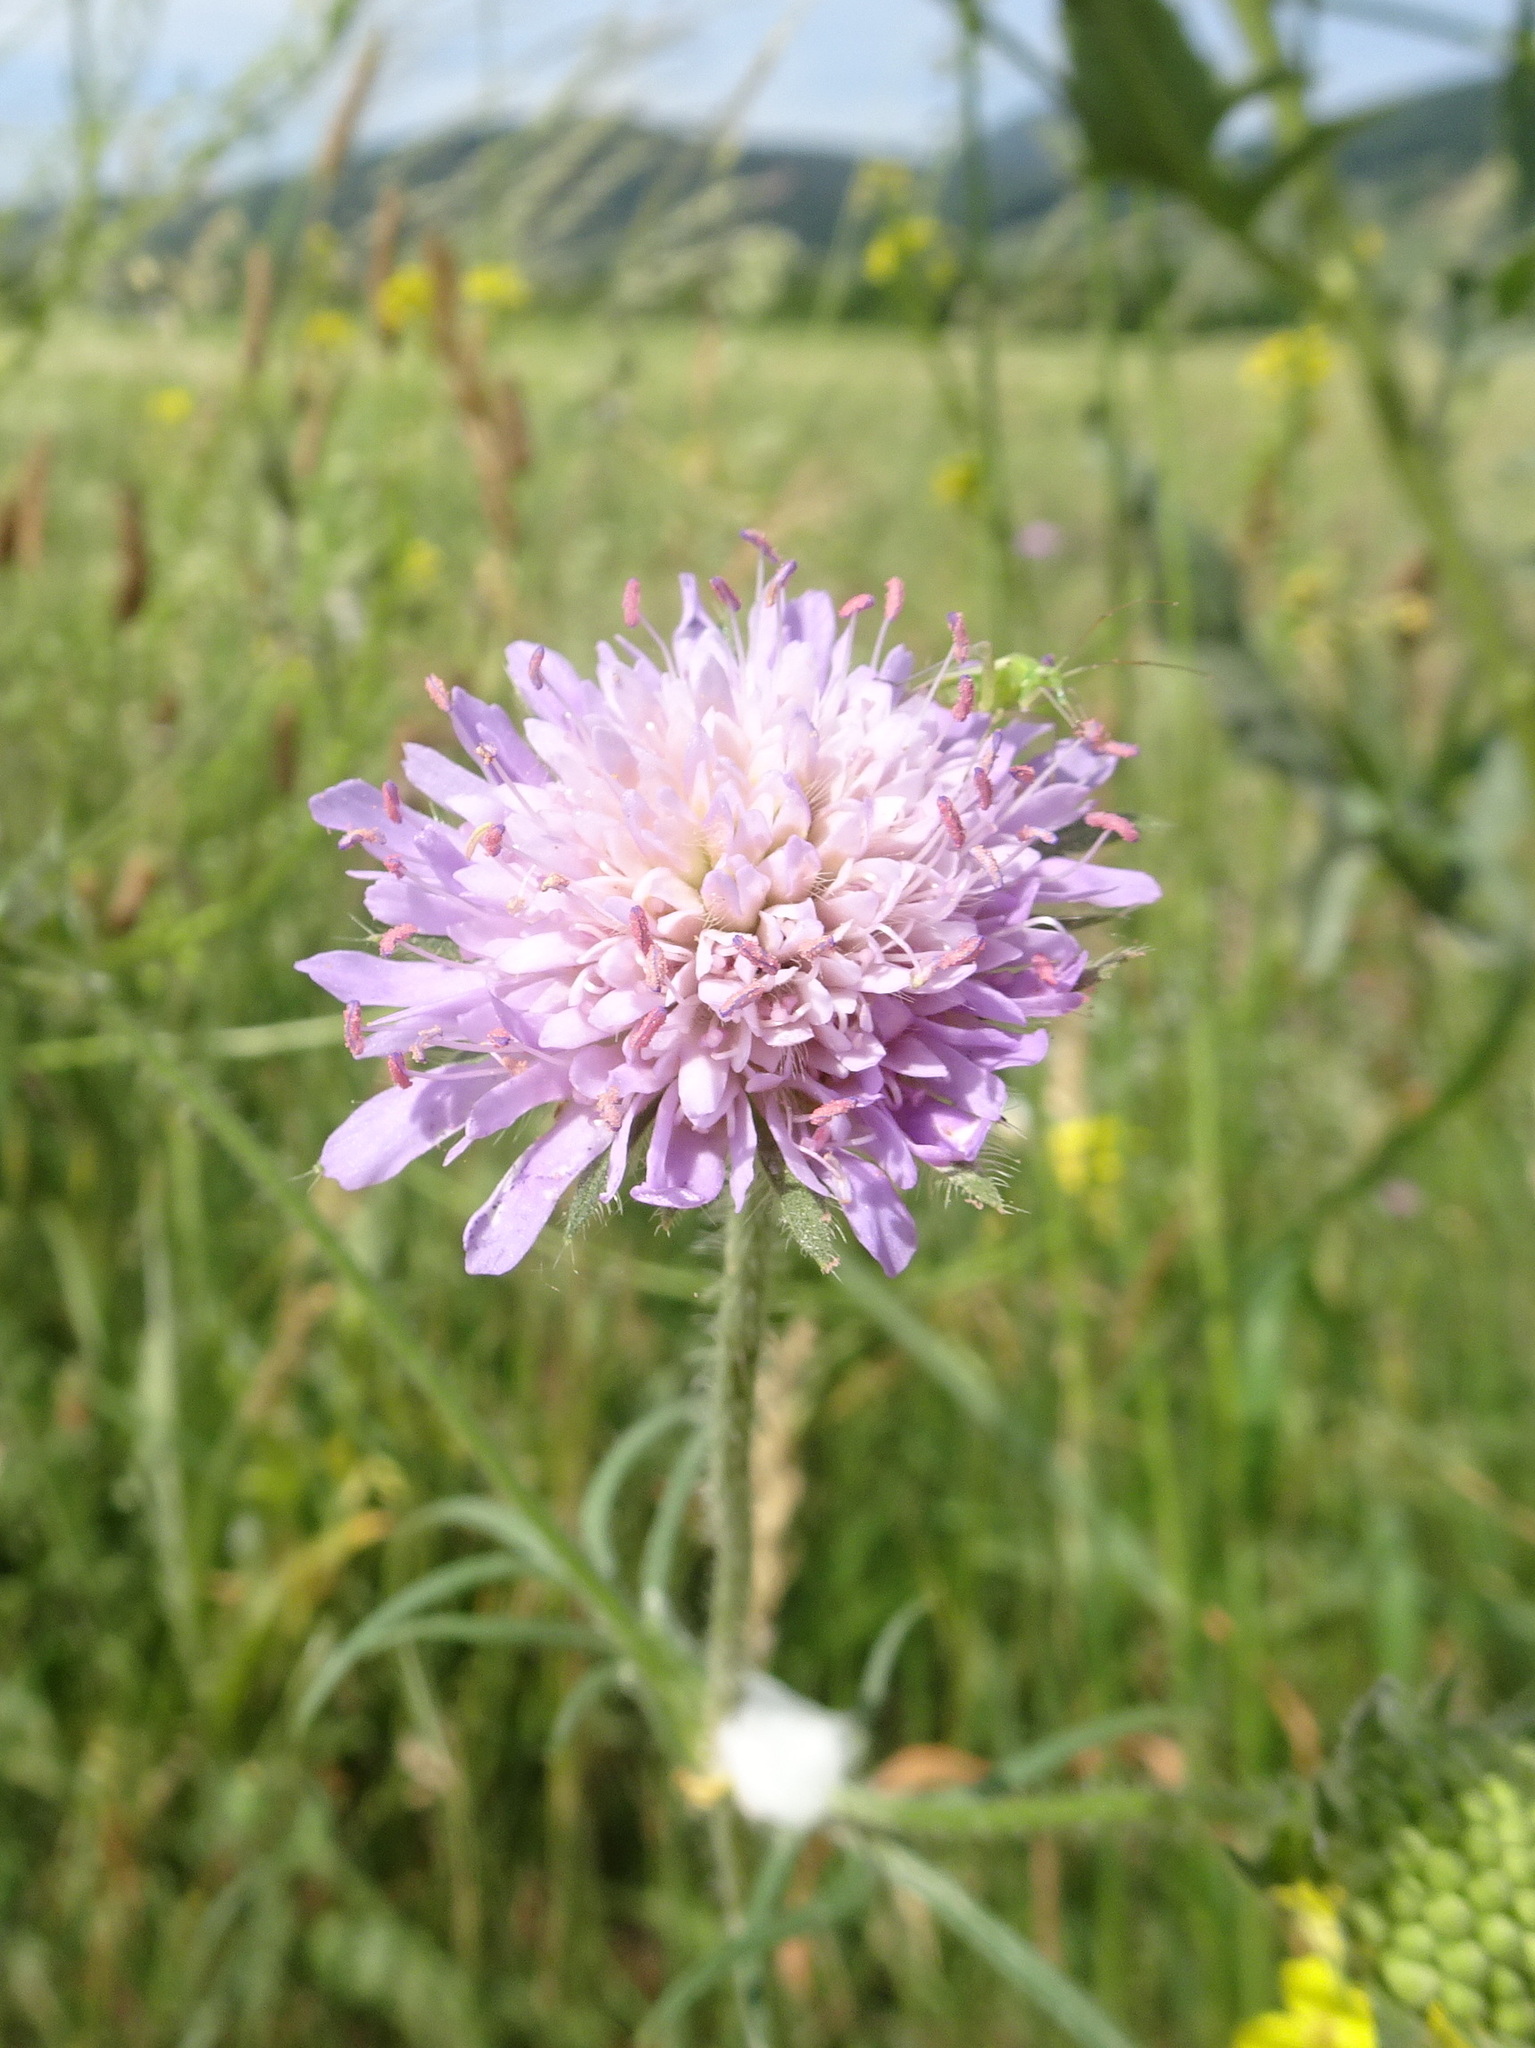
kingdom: Plantae
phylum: Tracheophyta
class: Magnoliopsida
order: Dipsacales
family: Caprifoliaceae
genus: Knautia
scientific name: Knautia arvensis
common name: Field scabiosa
